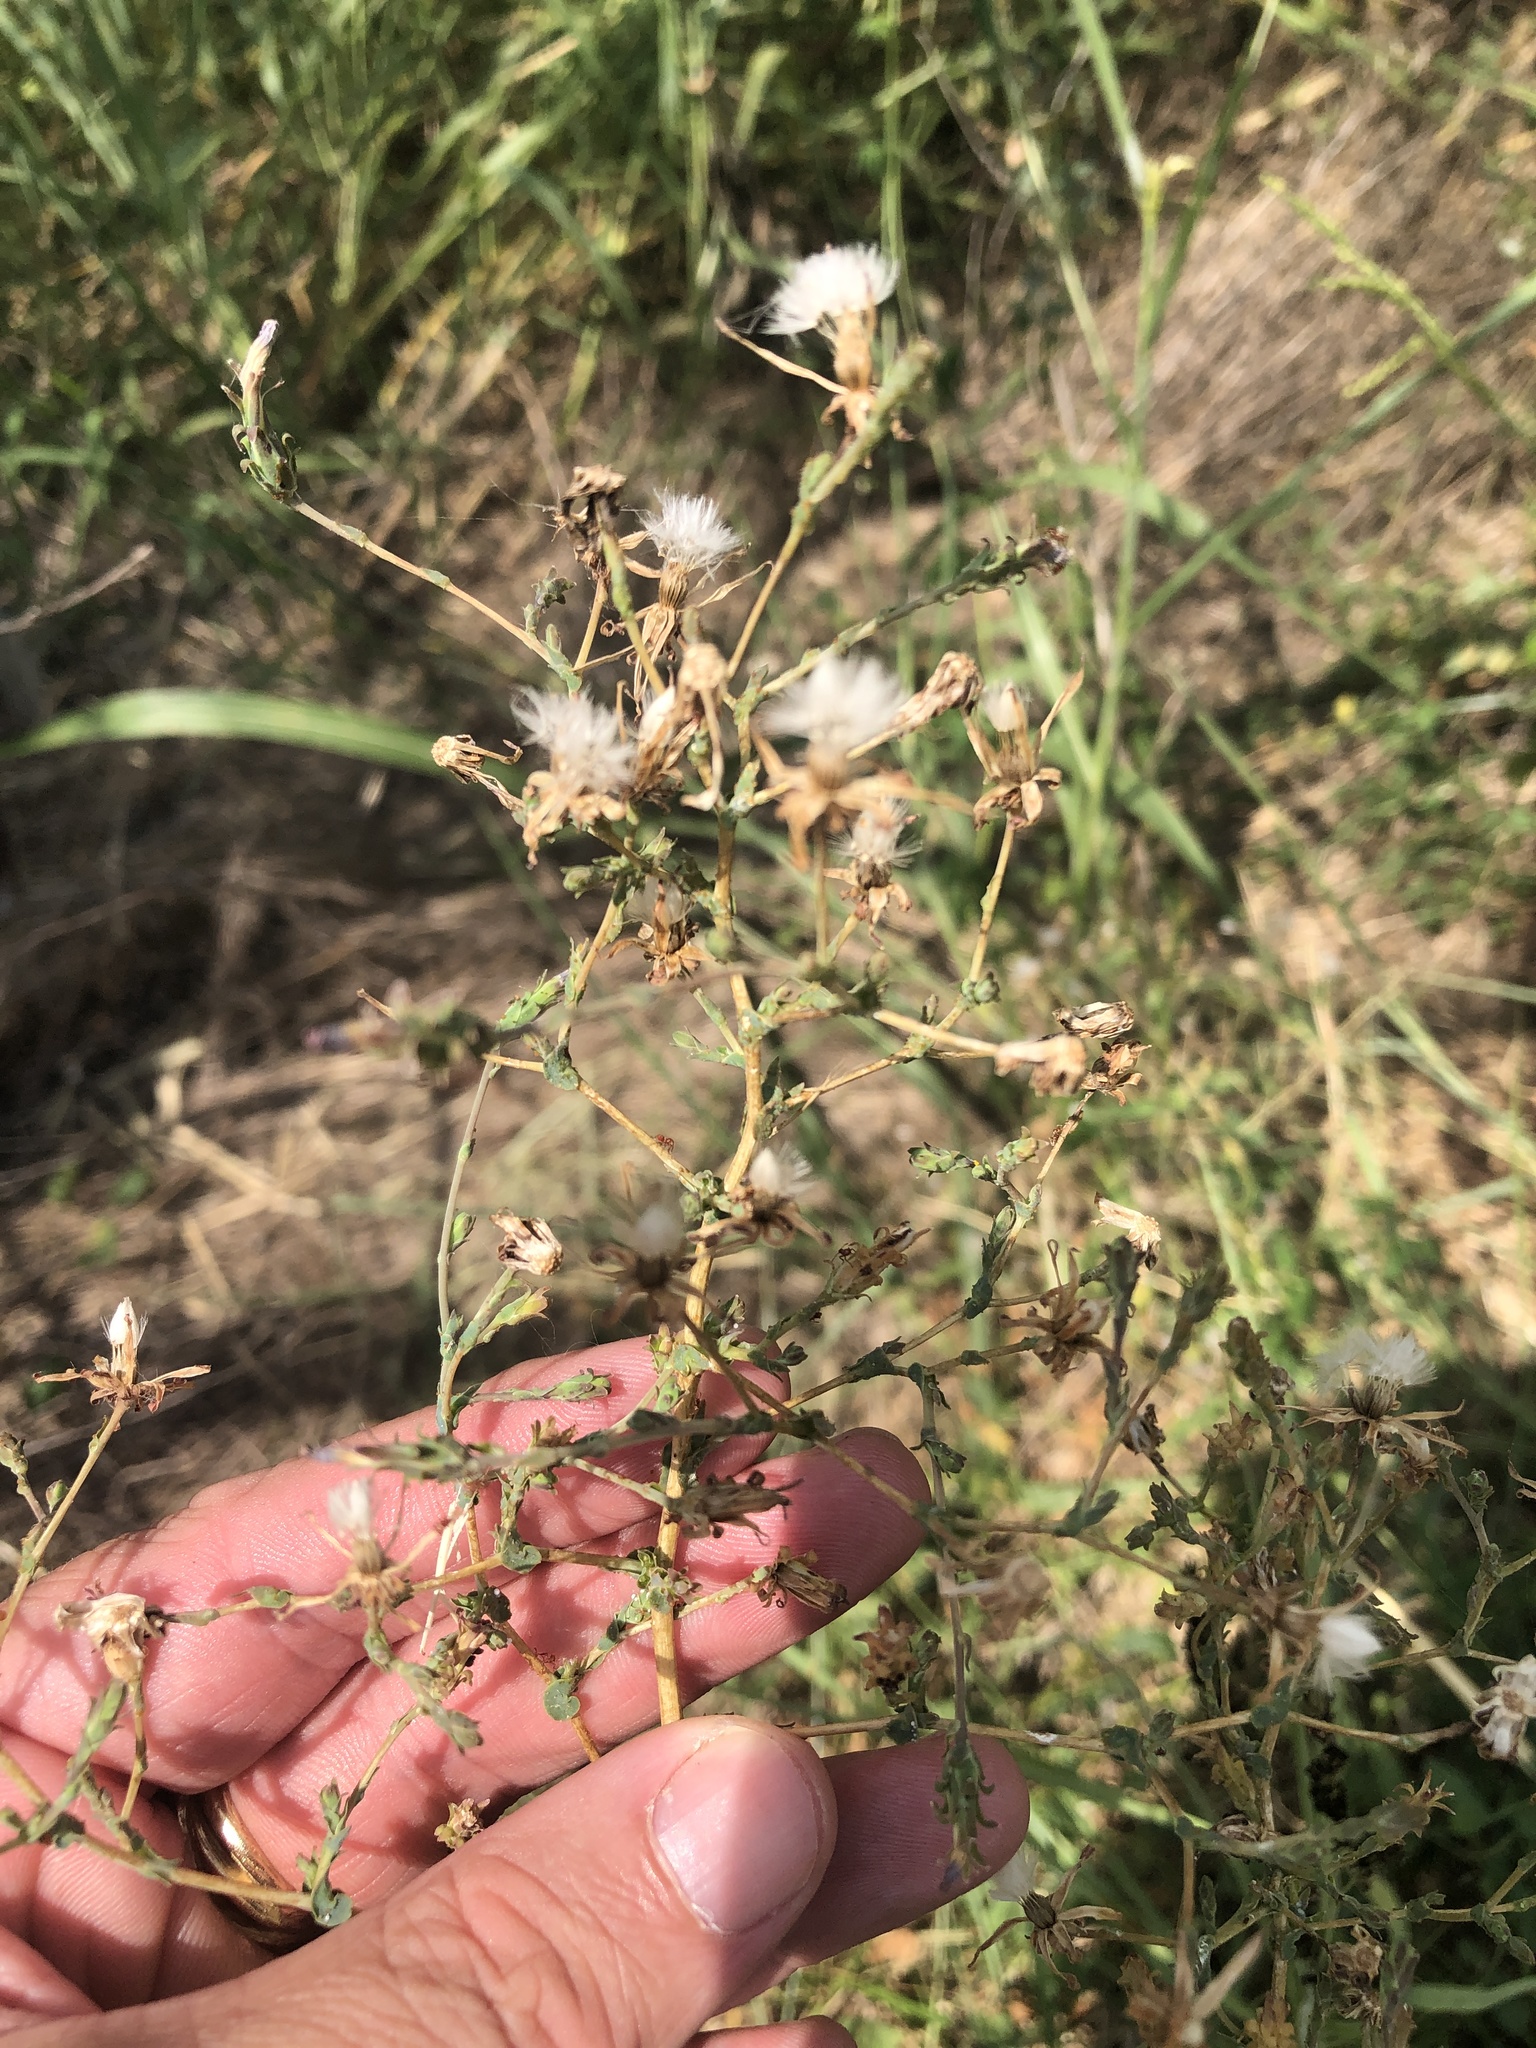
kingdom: Plantae
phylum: Tracheophyta
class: Magnoliopsida
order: Asterales
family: Asteraceae
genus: Lactuca
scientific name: Lactuca serriola
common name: Prickly lettuce
